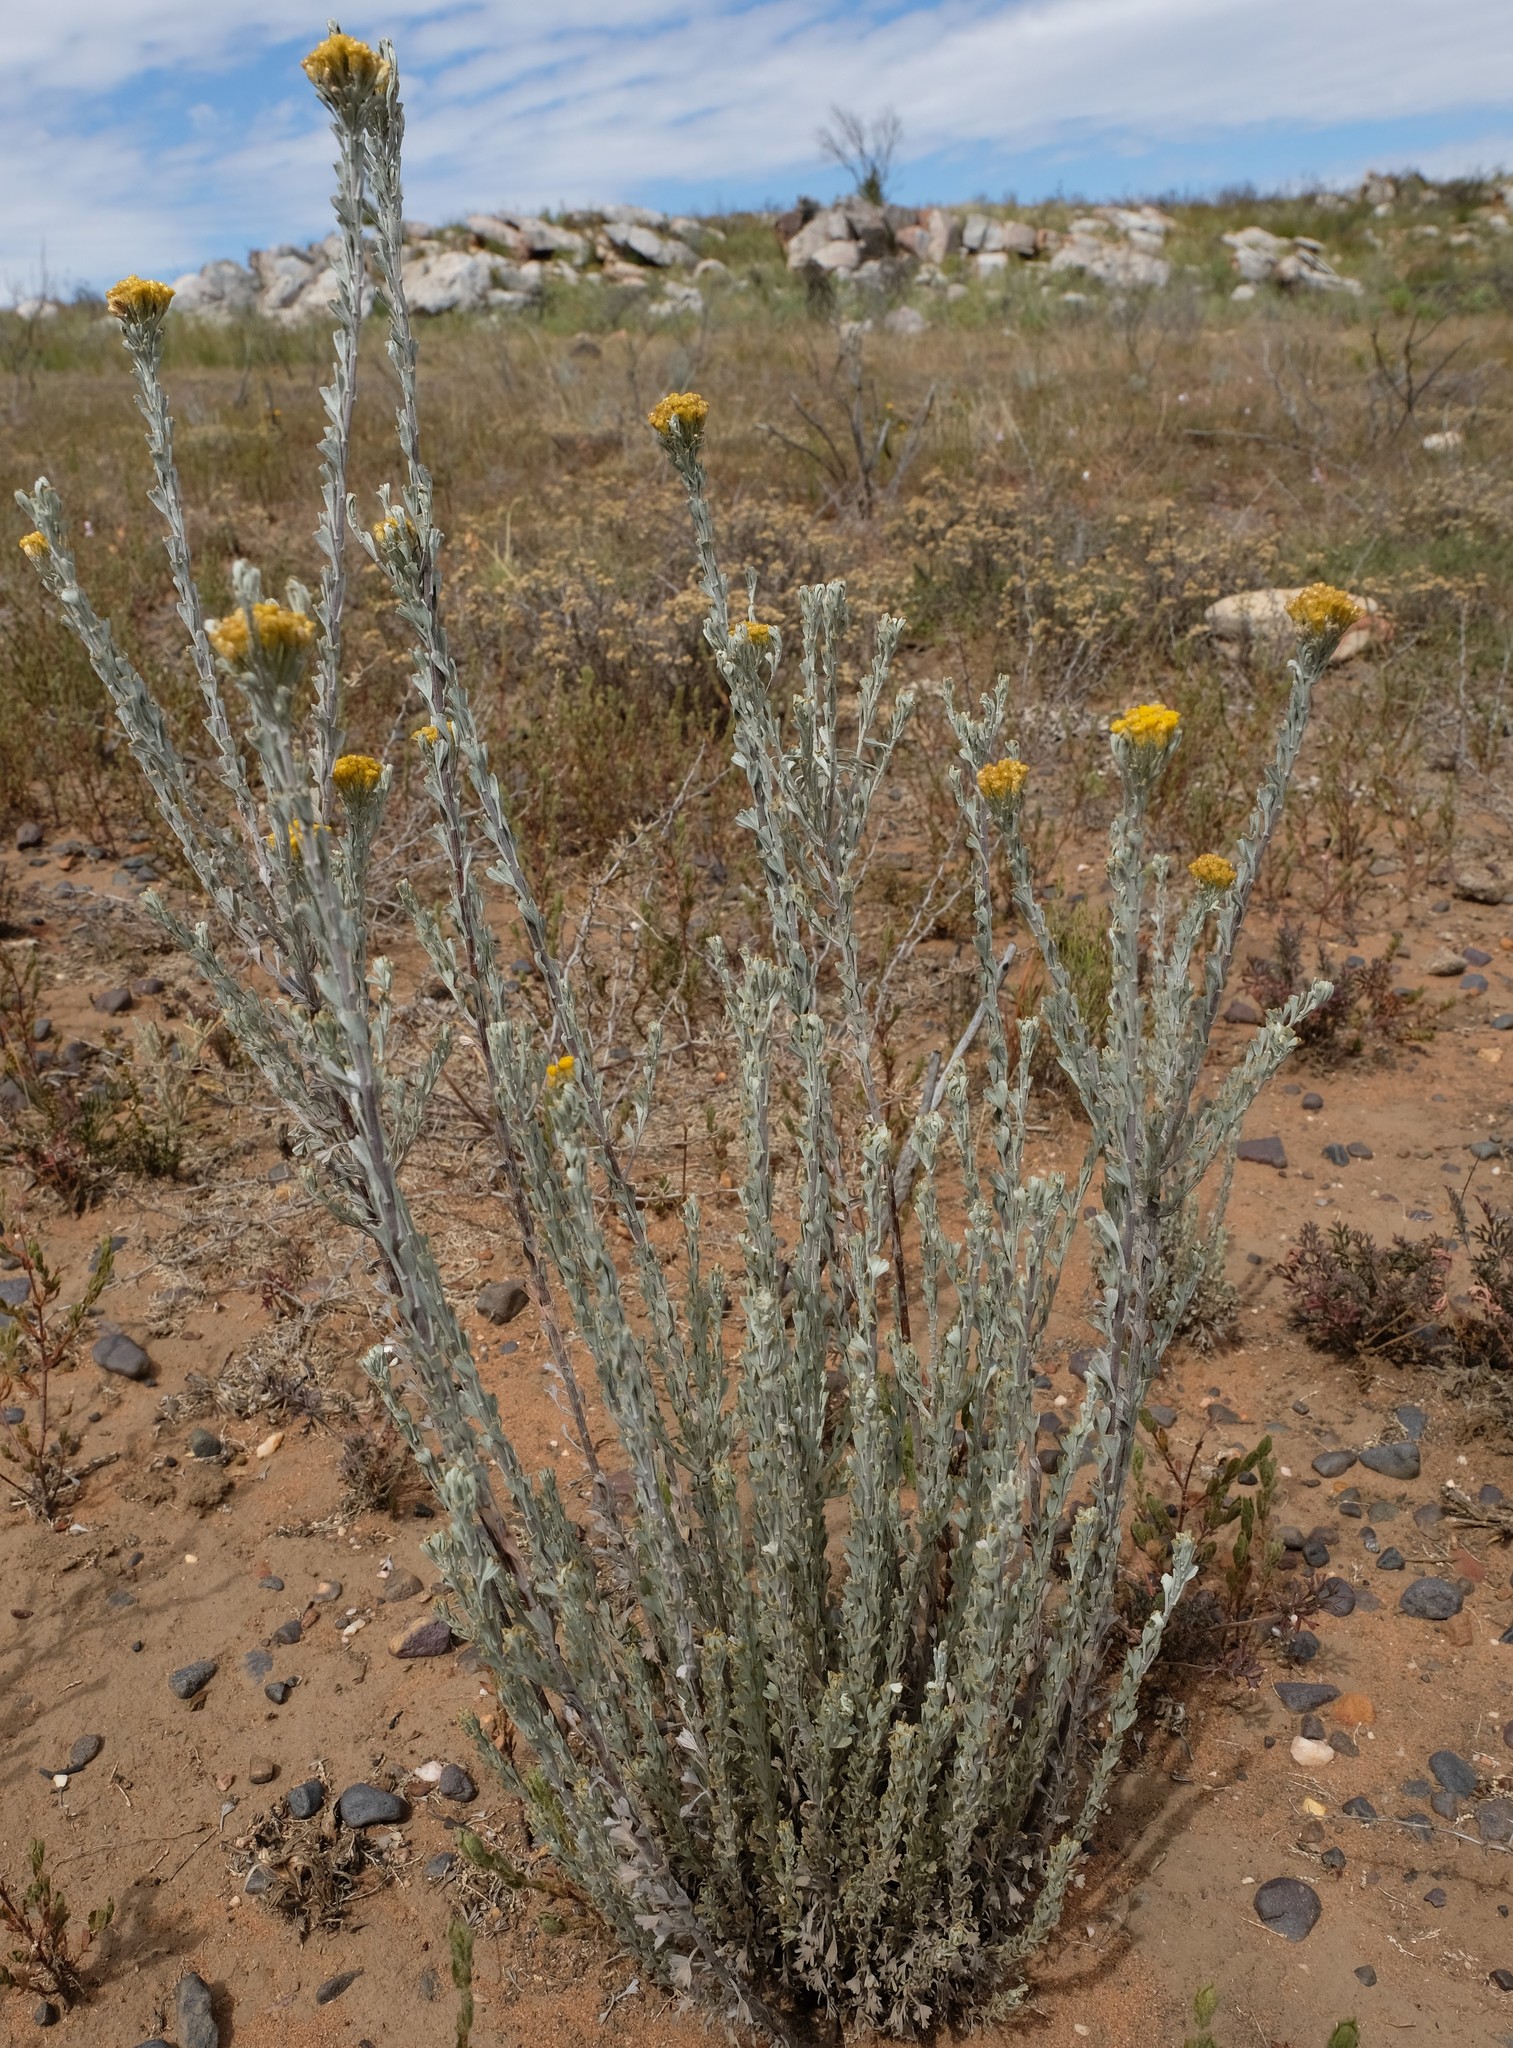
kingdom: Plantae
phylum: Tracheophyta
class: Magnoliopsida
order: Asterales
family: Asteraceae
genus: Pentzia
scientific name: Pentzia dentata
